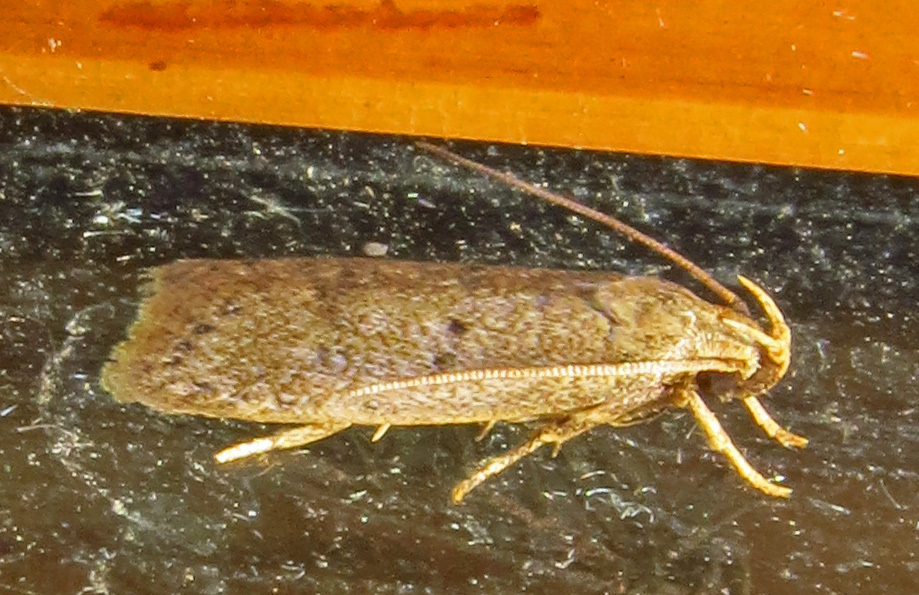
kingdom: Animalia
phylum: Arthropoda
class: Insecta
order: Lepidoptera
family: Autostichidae
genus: Autosticha
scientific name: Autosticha kyotensis
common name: Kyoto moth
